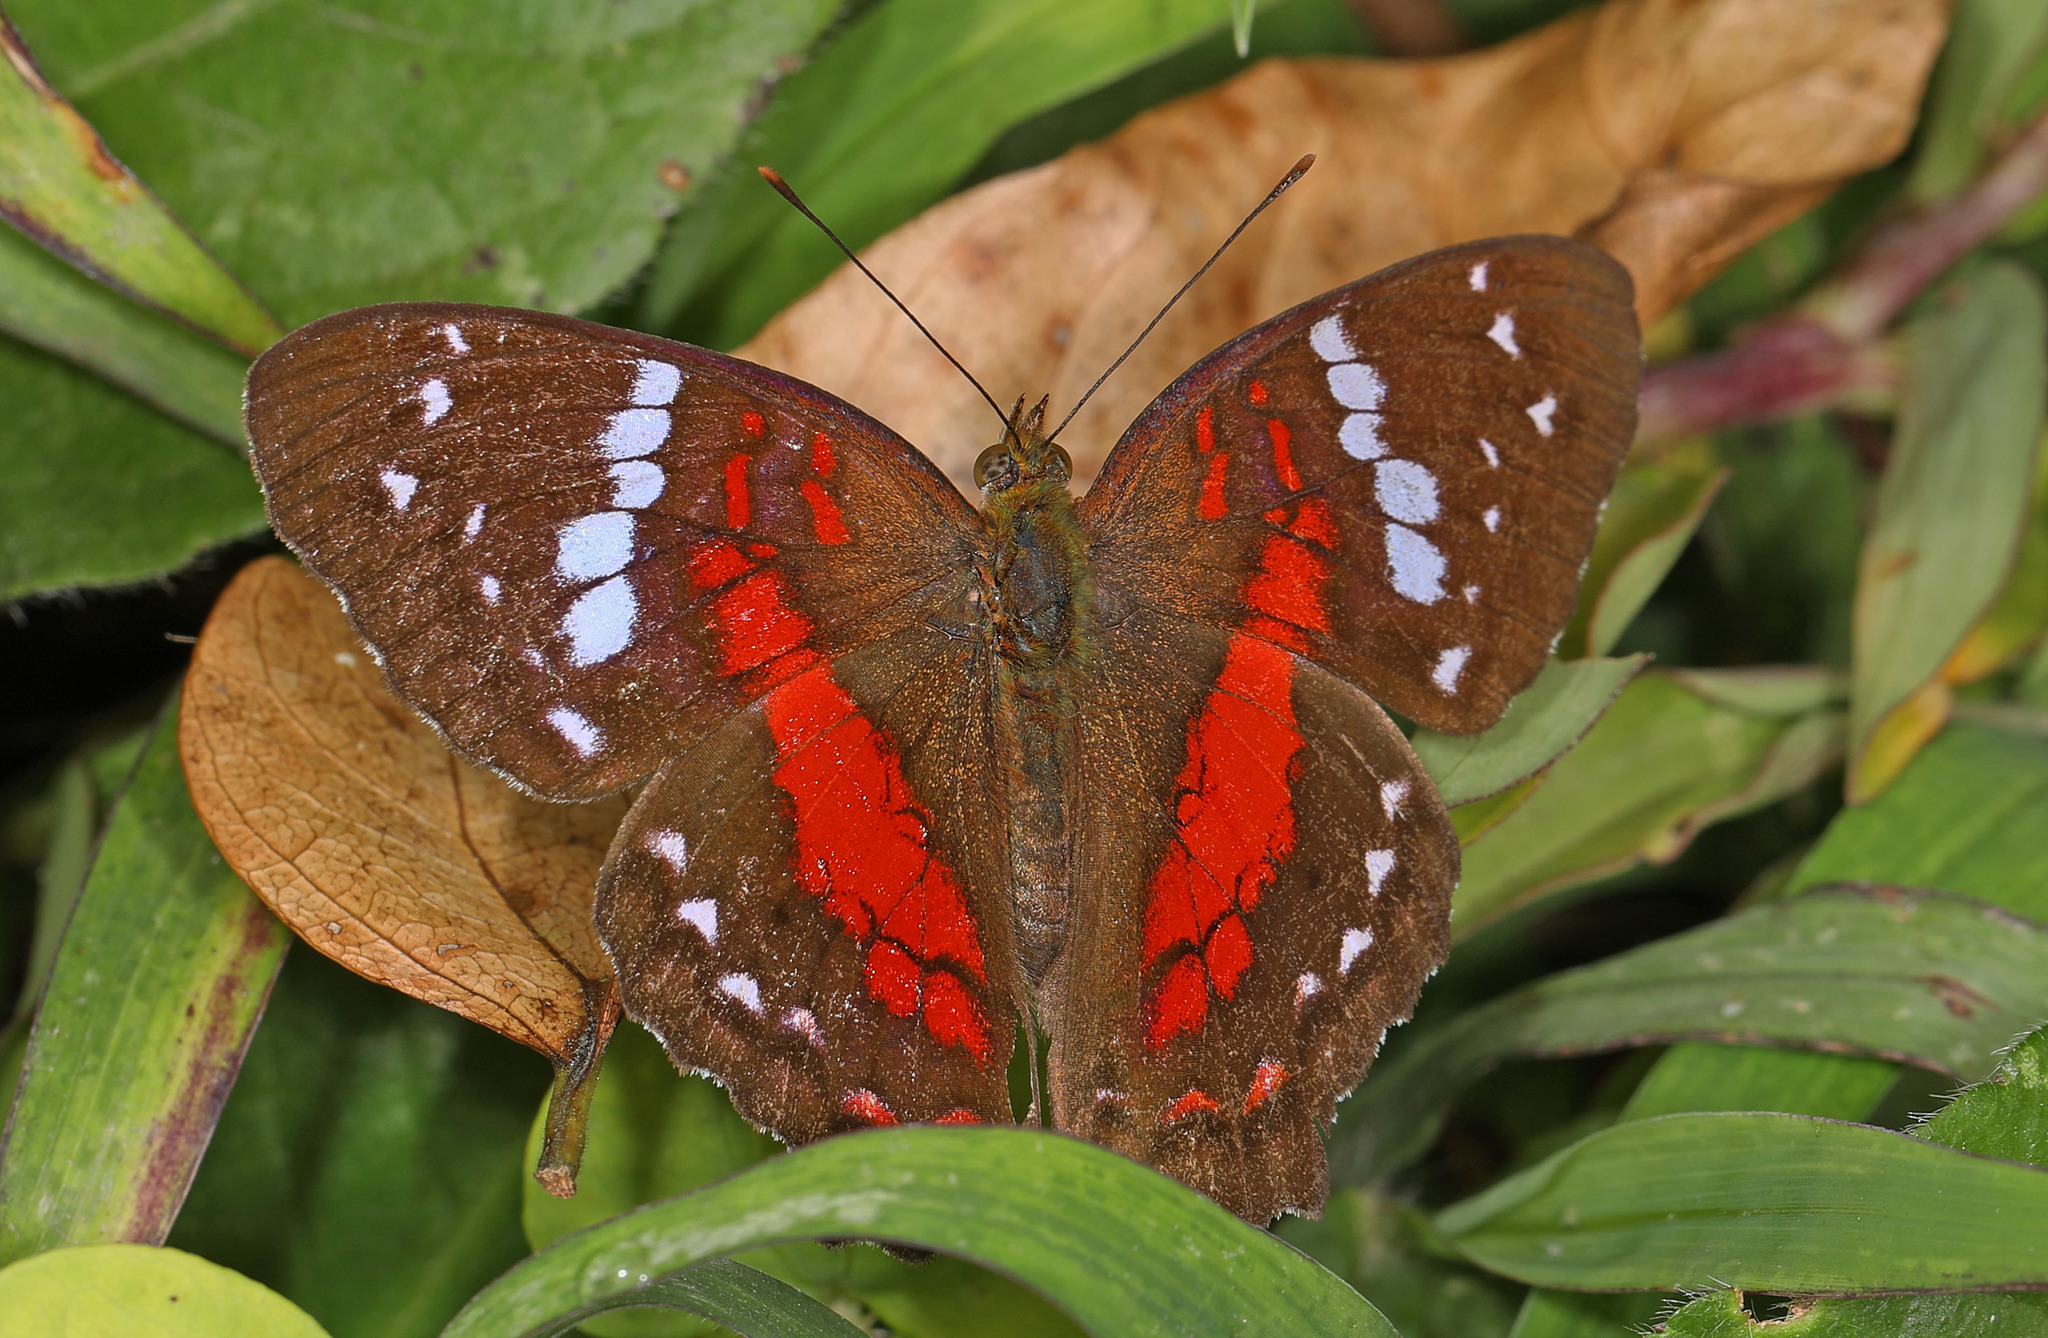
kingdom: Animalia
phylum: Arthropoda
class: Insecta
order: Lepidoptera
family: Nymphalidae
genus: Anartia
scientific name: Anartia amathea
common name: Red peacock
